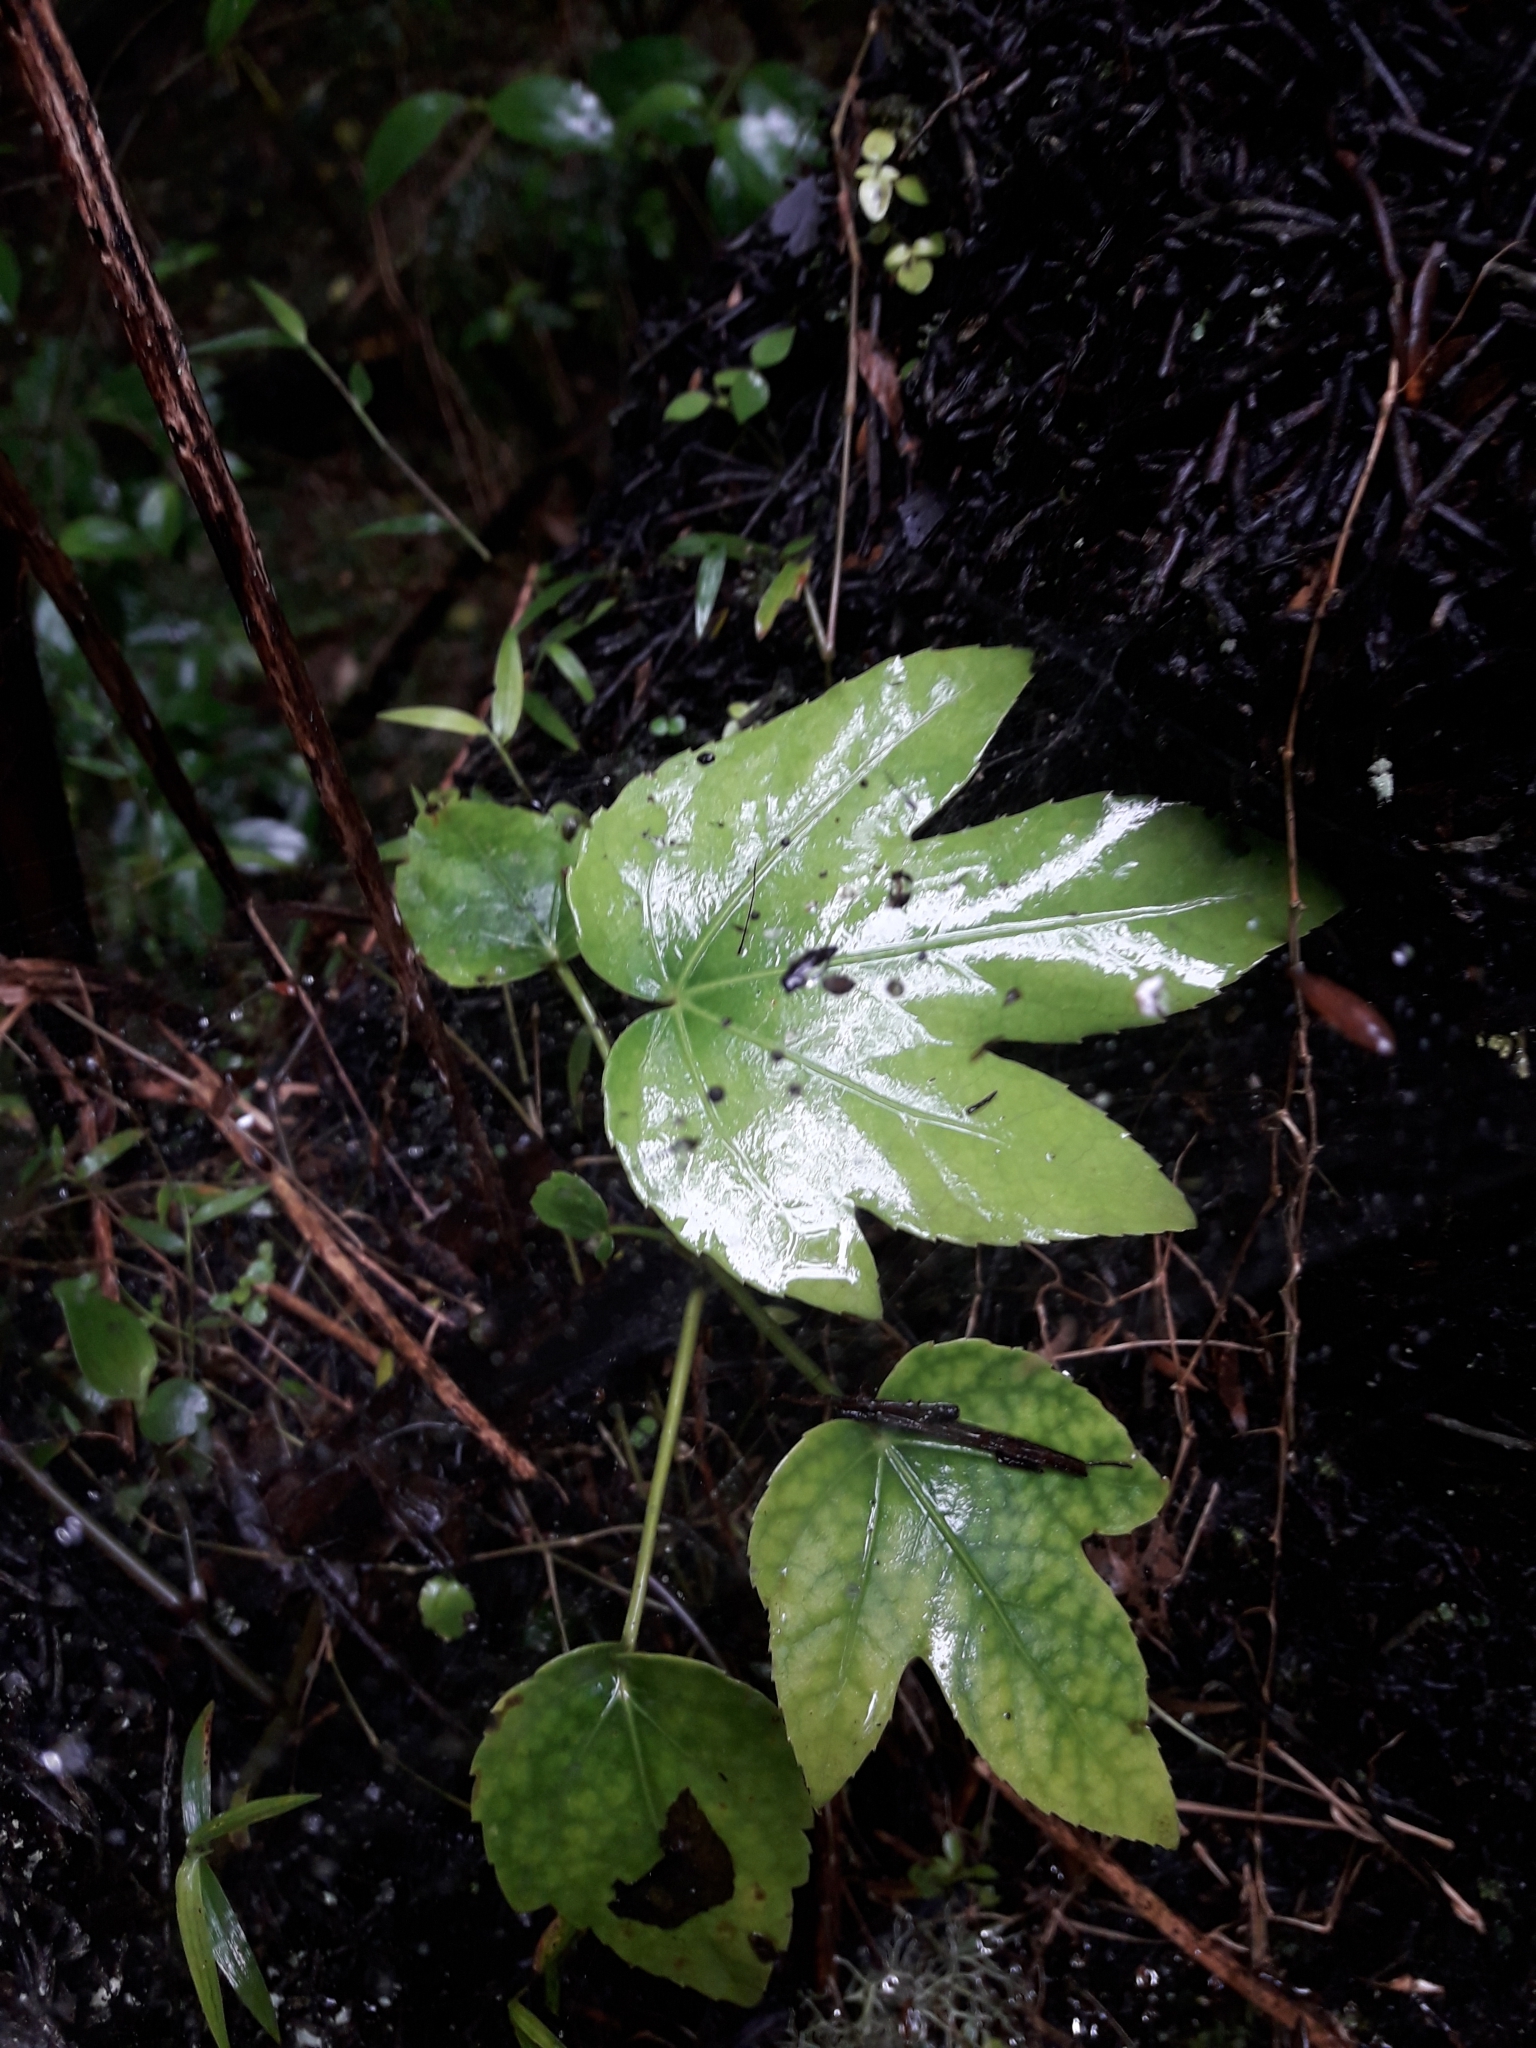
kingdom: Plantae
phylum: Tracheophyta
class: Magnoliopsida
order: Apiales
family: Araliaceae
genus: Fatsia
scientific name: Fatsia japonica
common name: Fatsia
